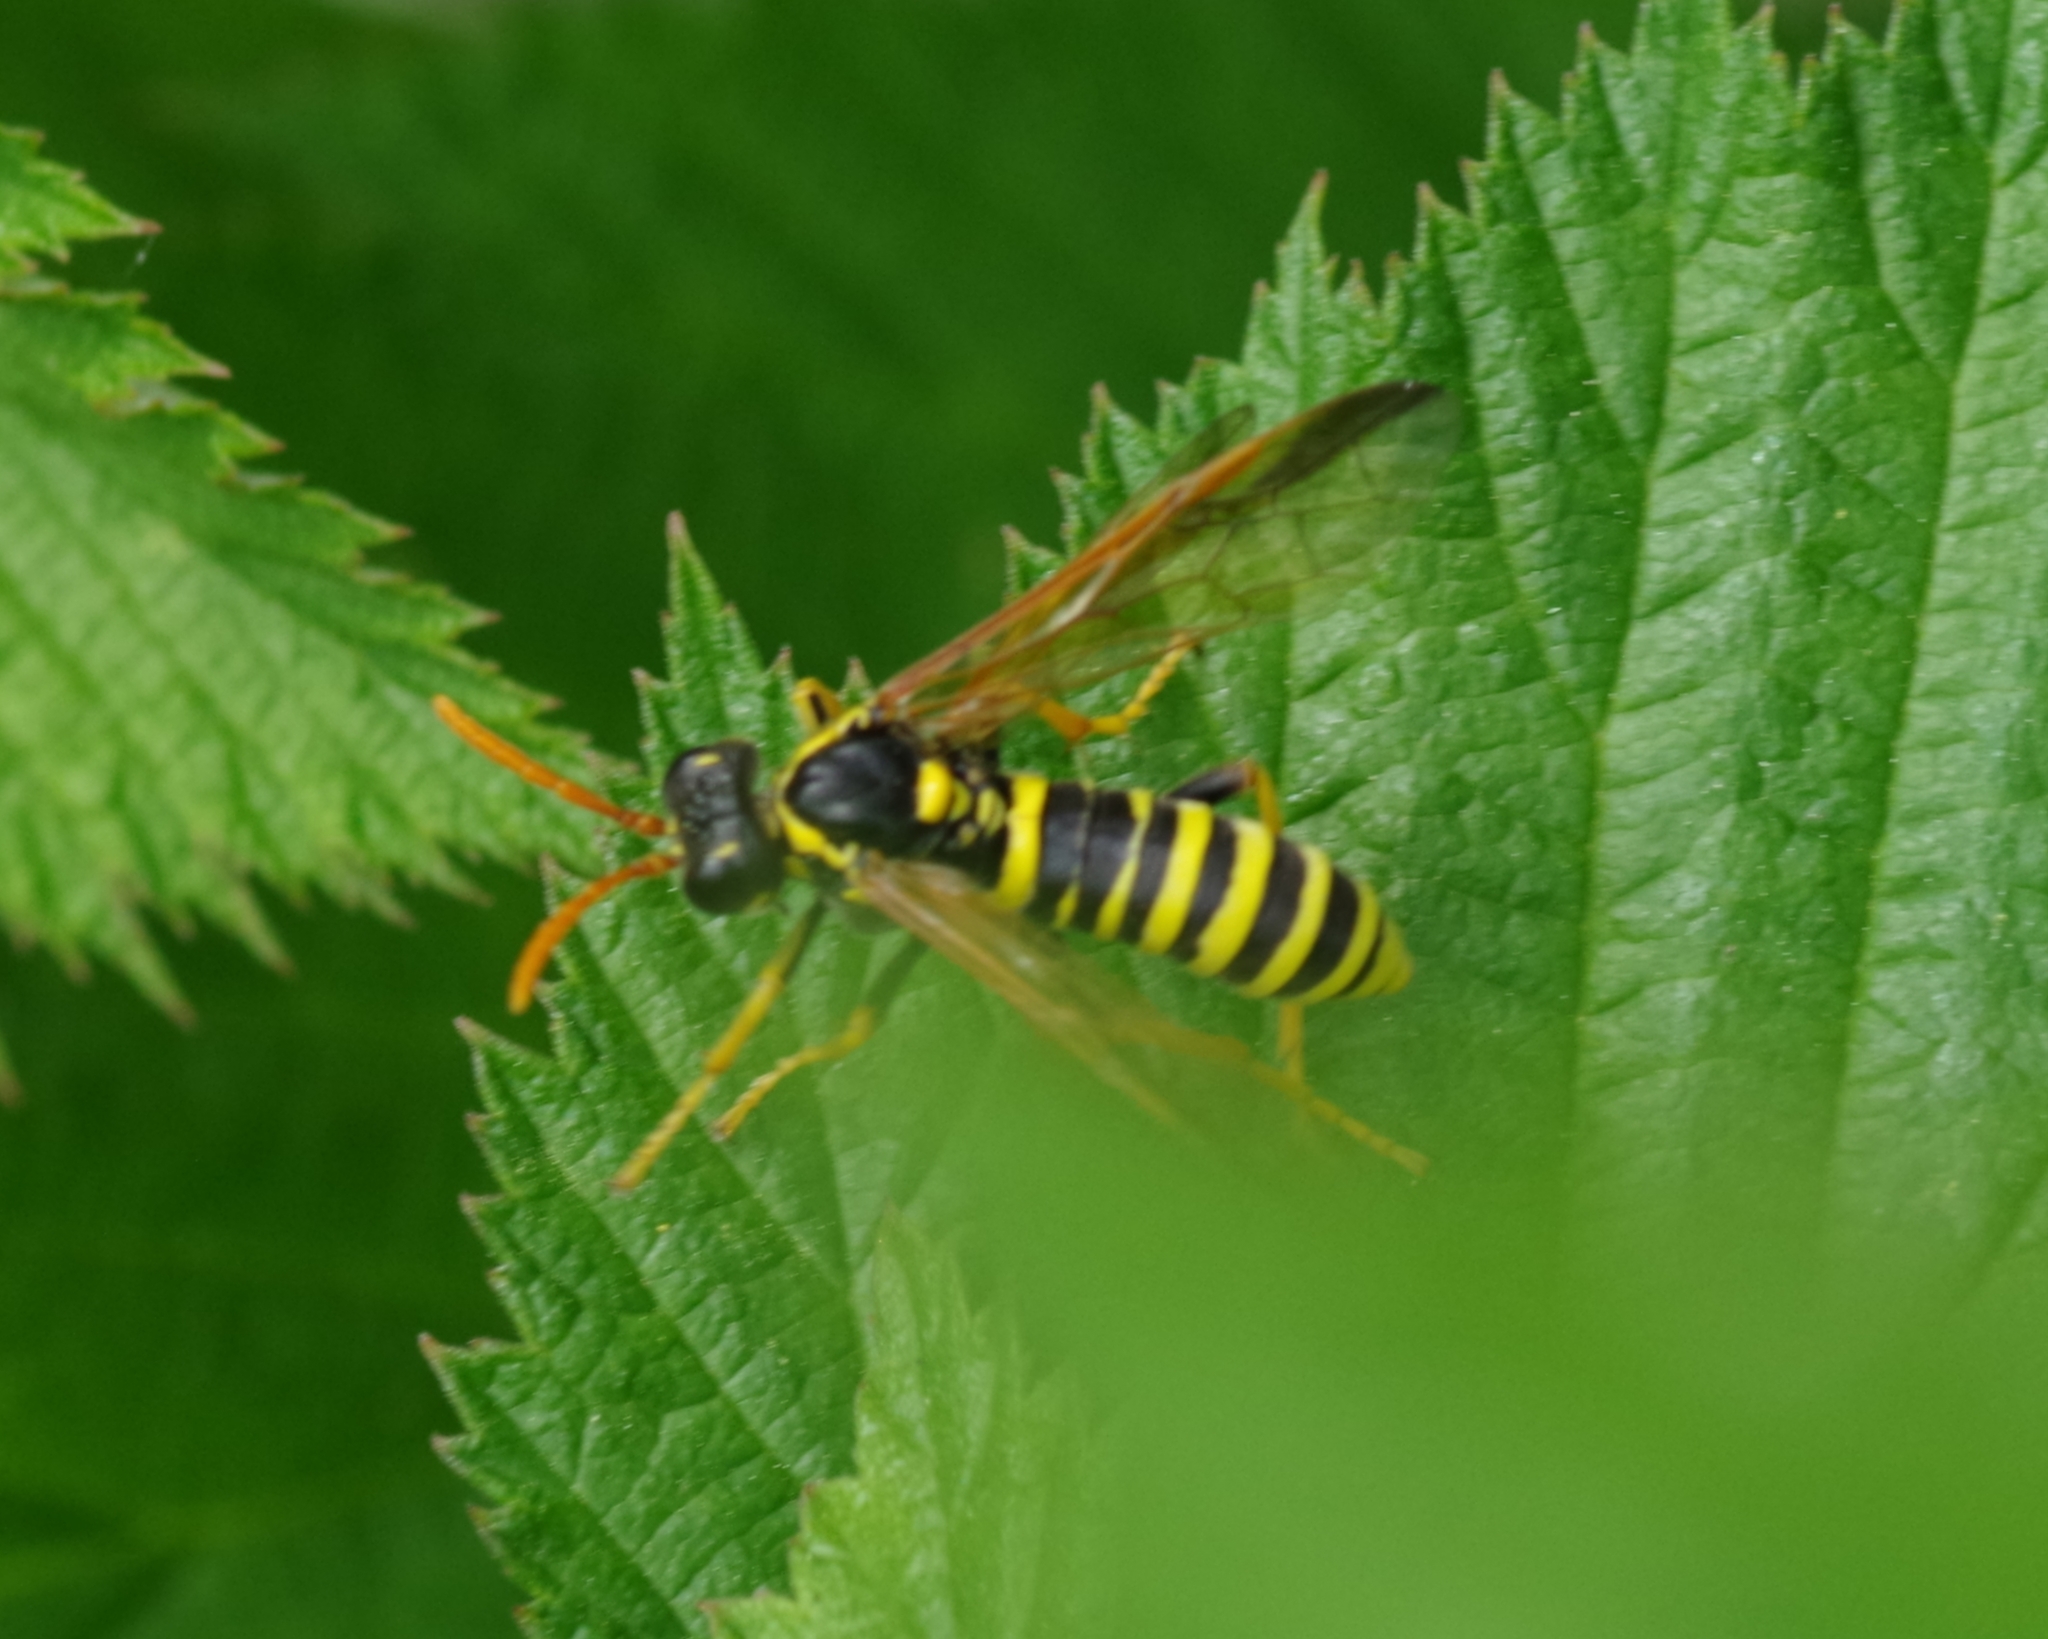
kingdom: Animalia
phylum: Arthropoda
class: Insecta
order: Hymenoptera
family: Tenthredinidae
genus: Tenthredo
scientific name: Tenthredo scrophulariae
